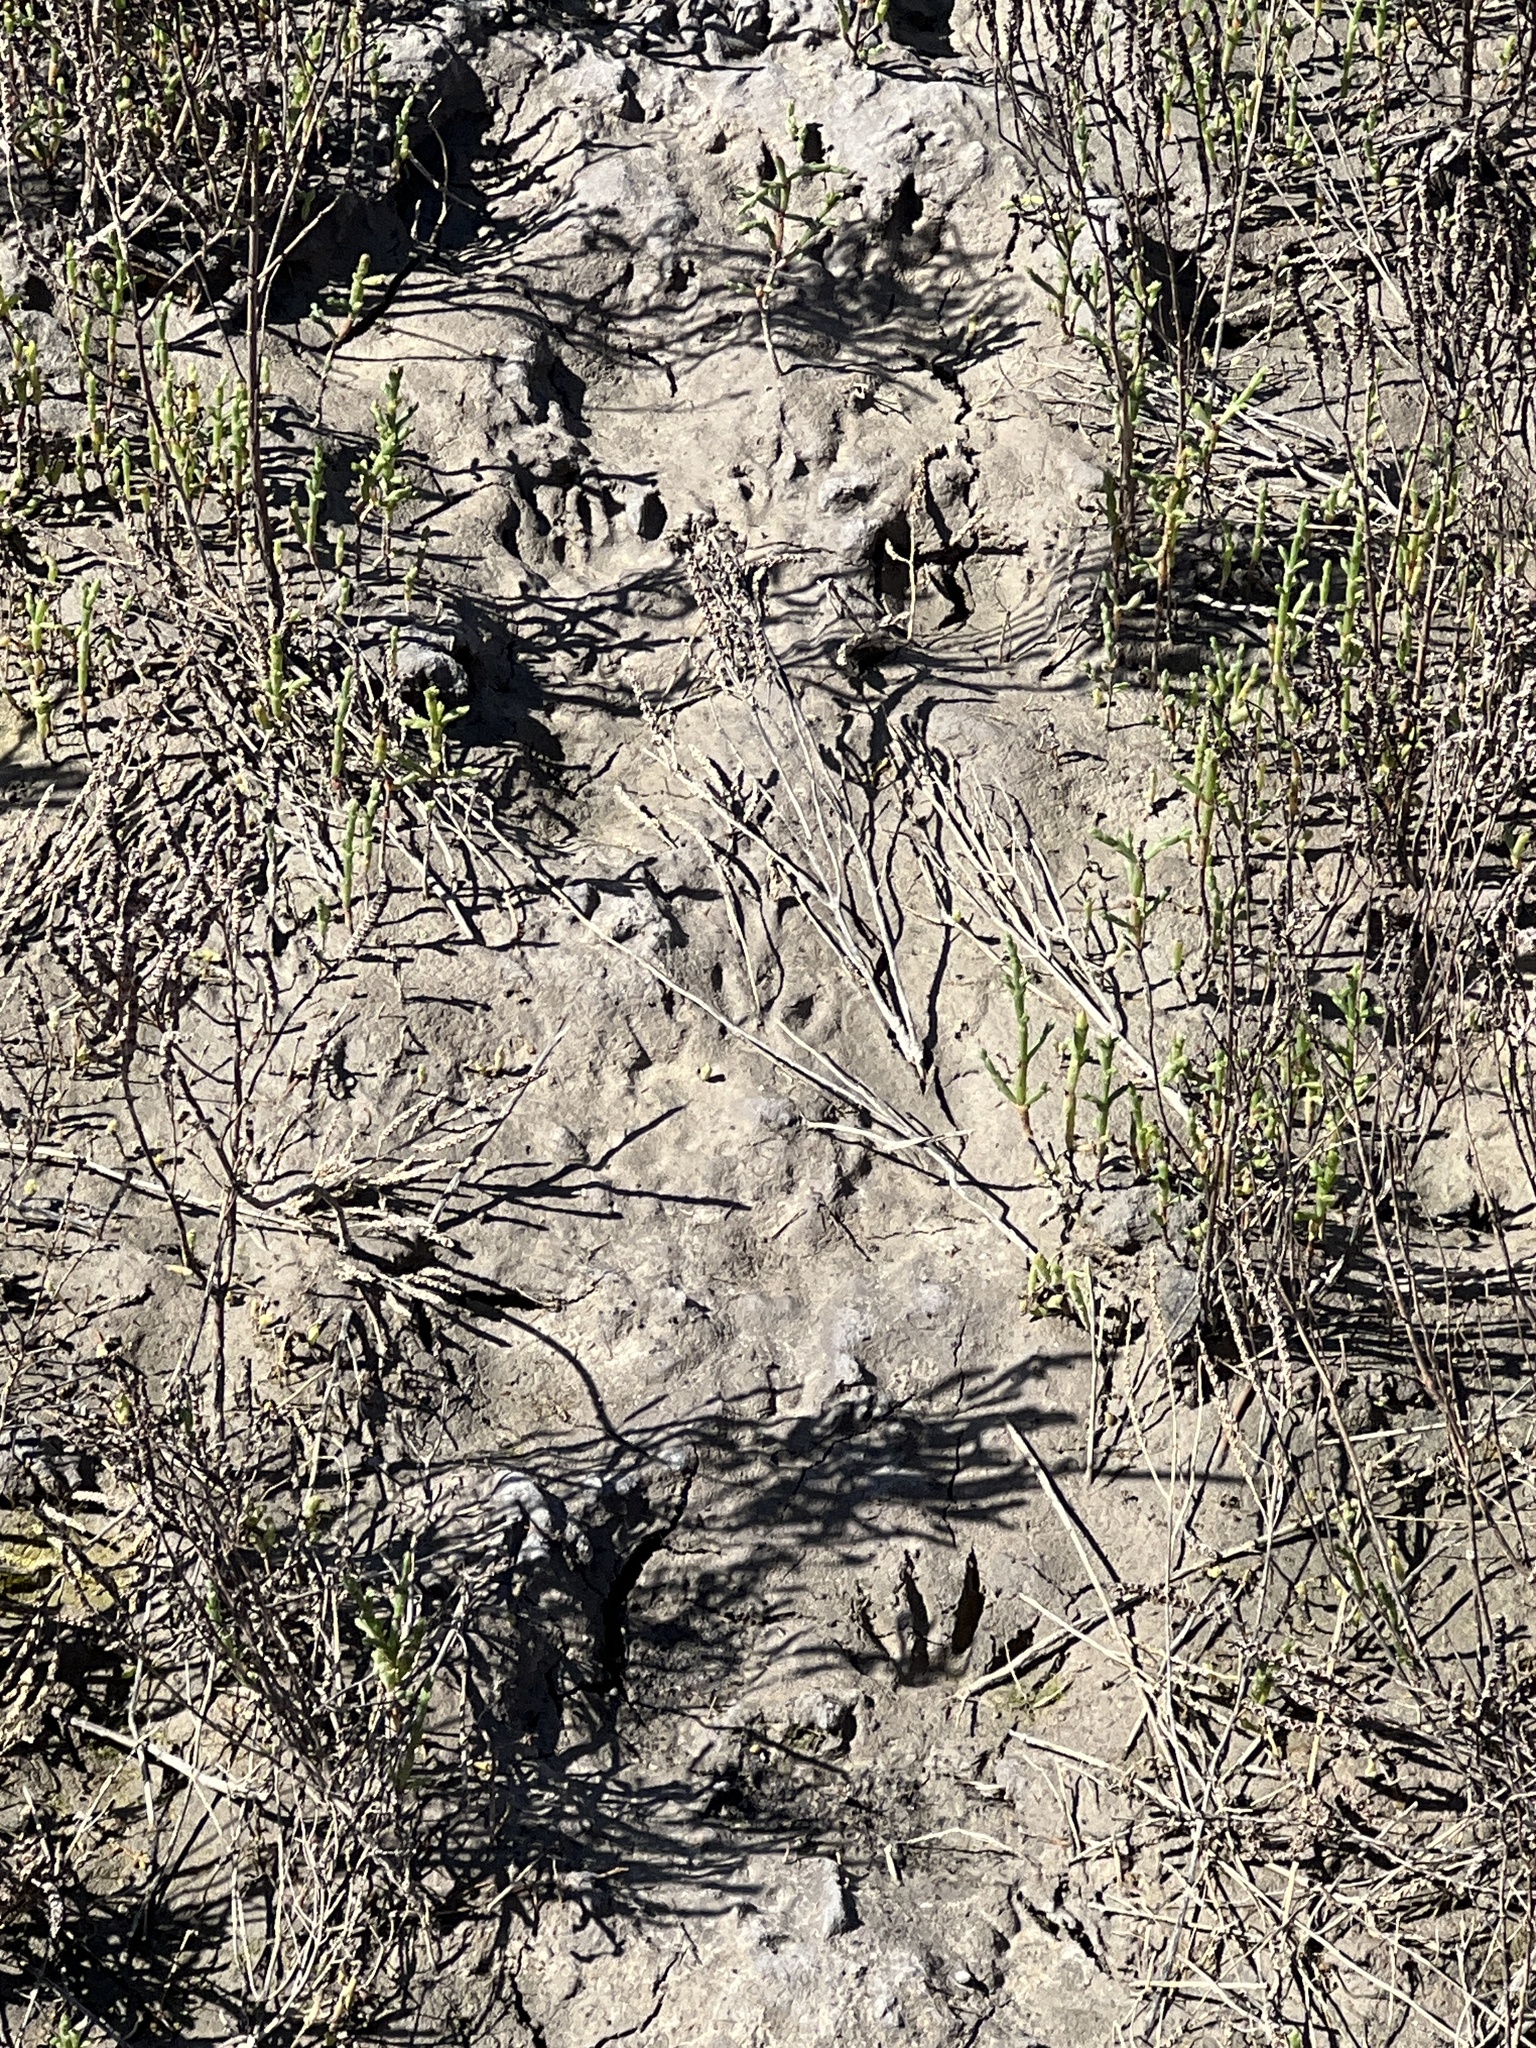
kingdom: Animalia
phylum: Chordata
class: Mammalia
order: Carnivora
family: Procyonidae
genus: Procyon
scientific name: Procyon lotor
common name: Raccoon
